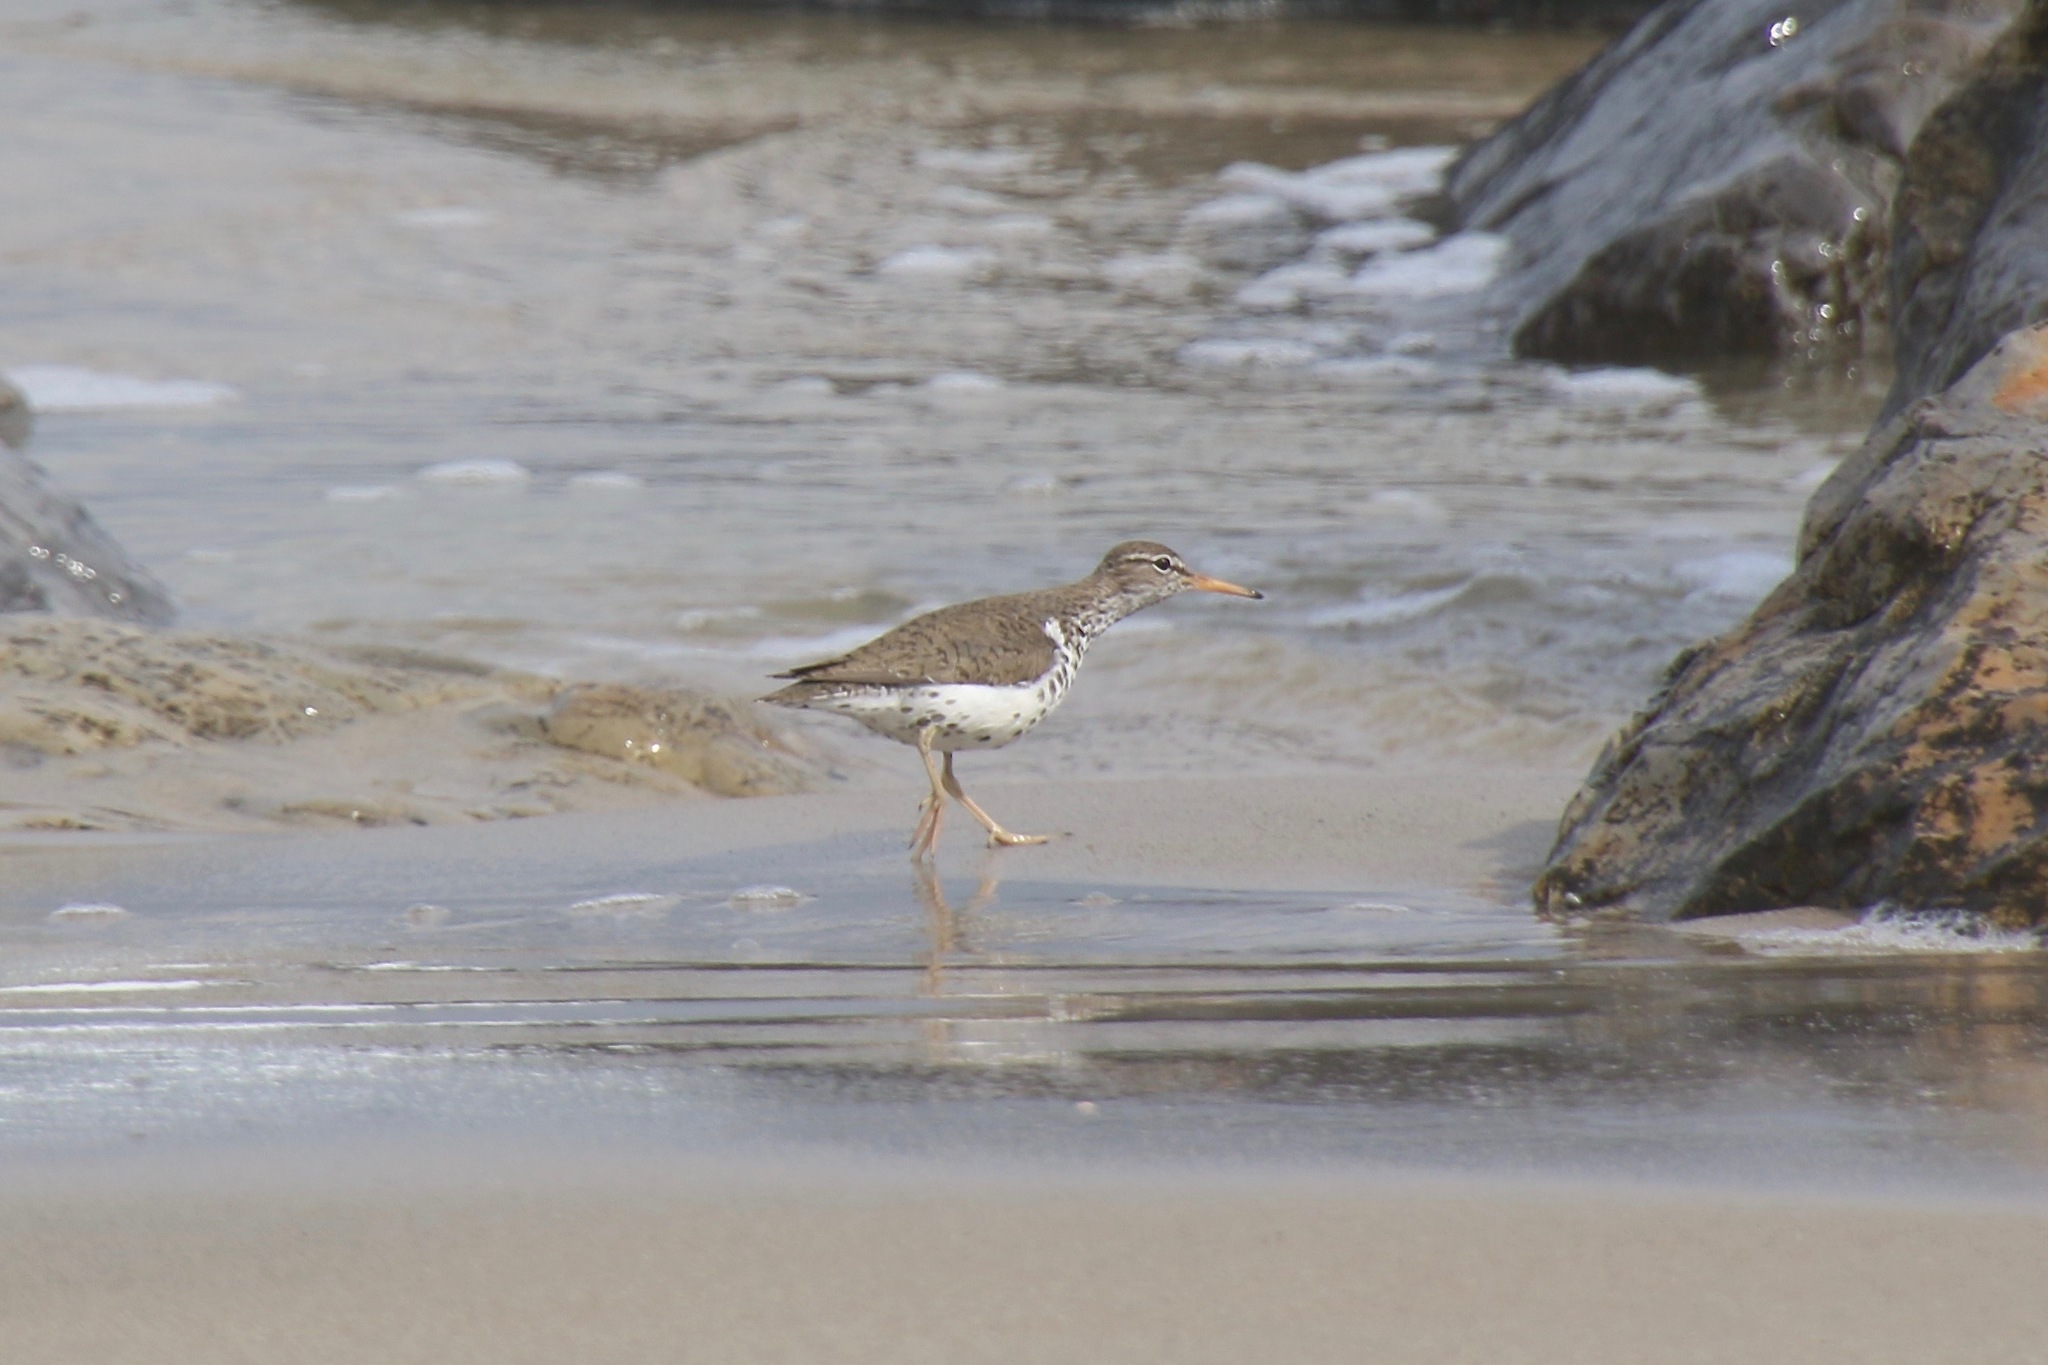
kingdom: Animalia
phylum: Chordata
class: Aves
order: Charadriiformes
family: Scolopacidae
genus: Actitis
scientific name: Actitis macularius
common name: Spotted sandpiper
